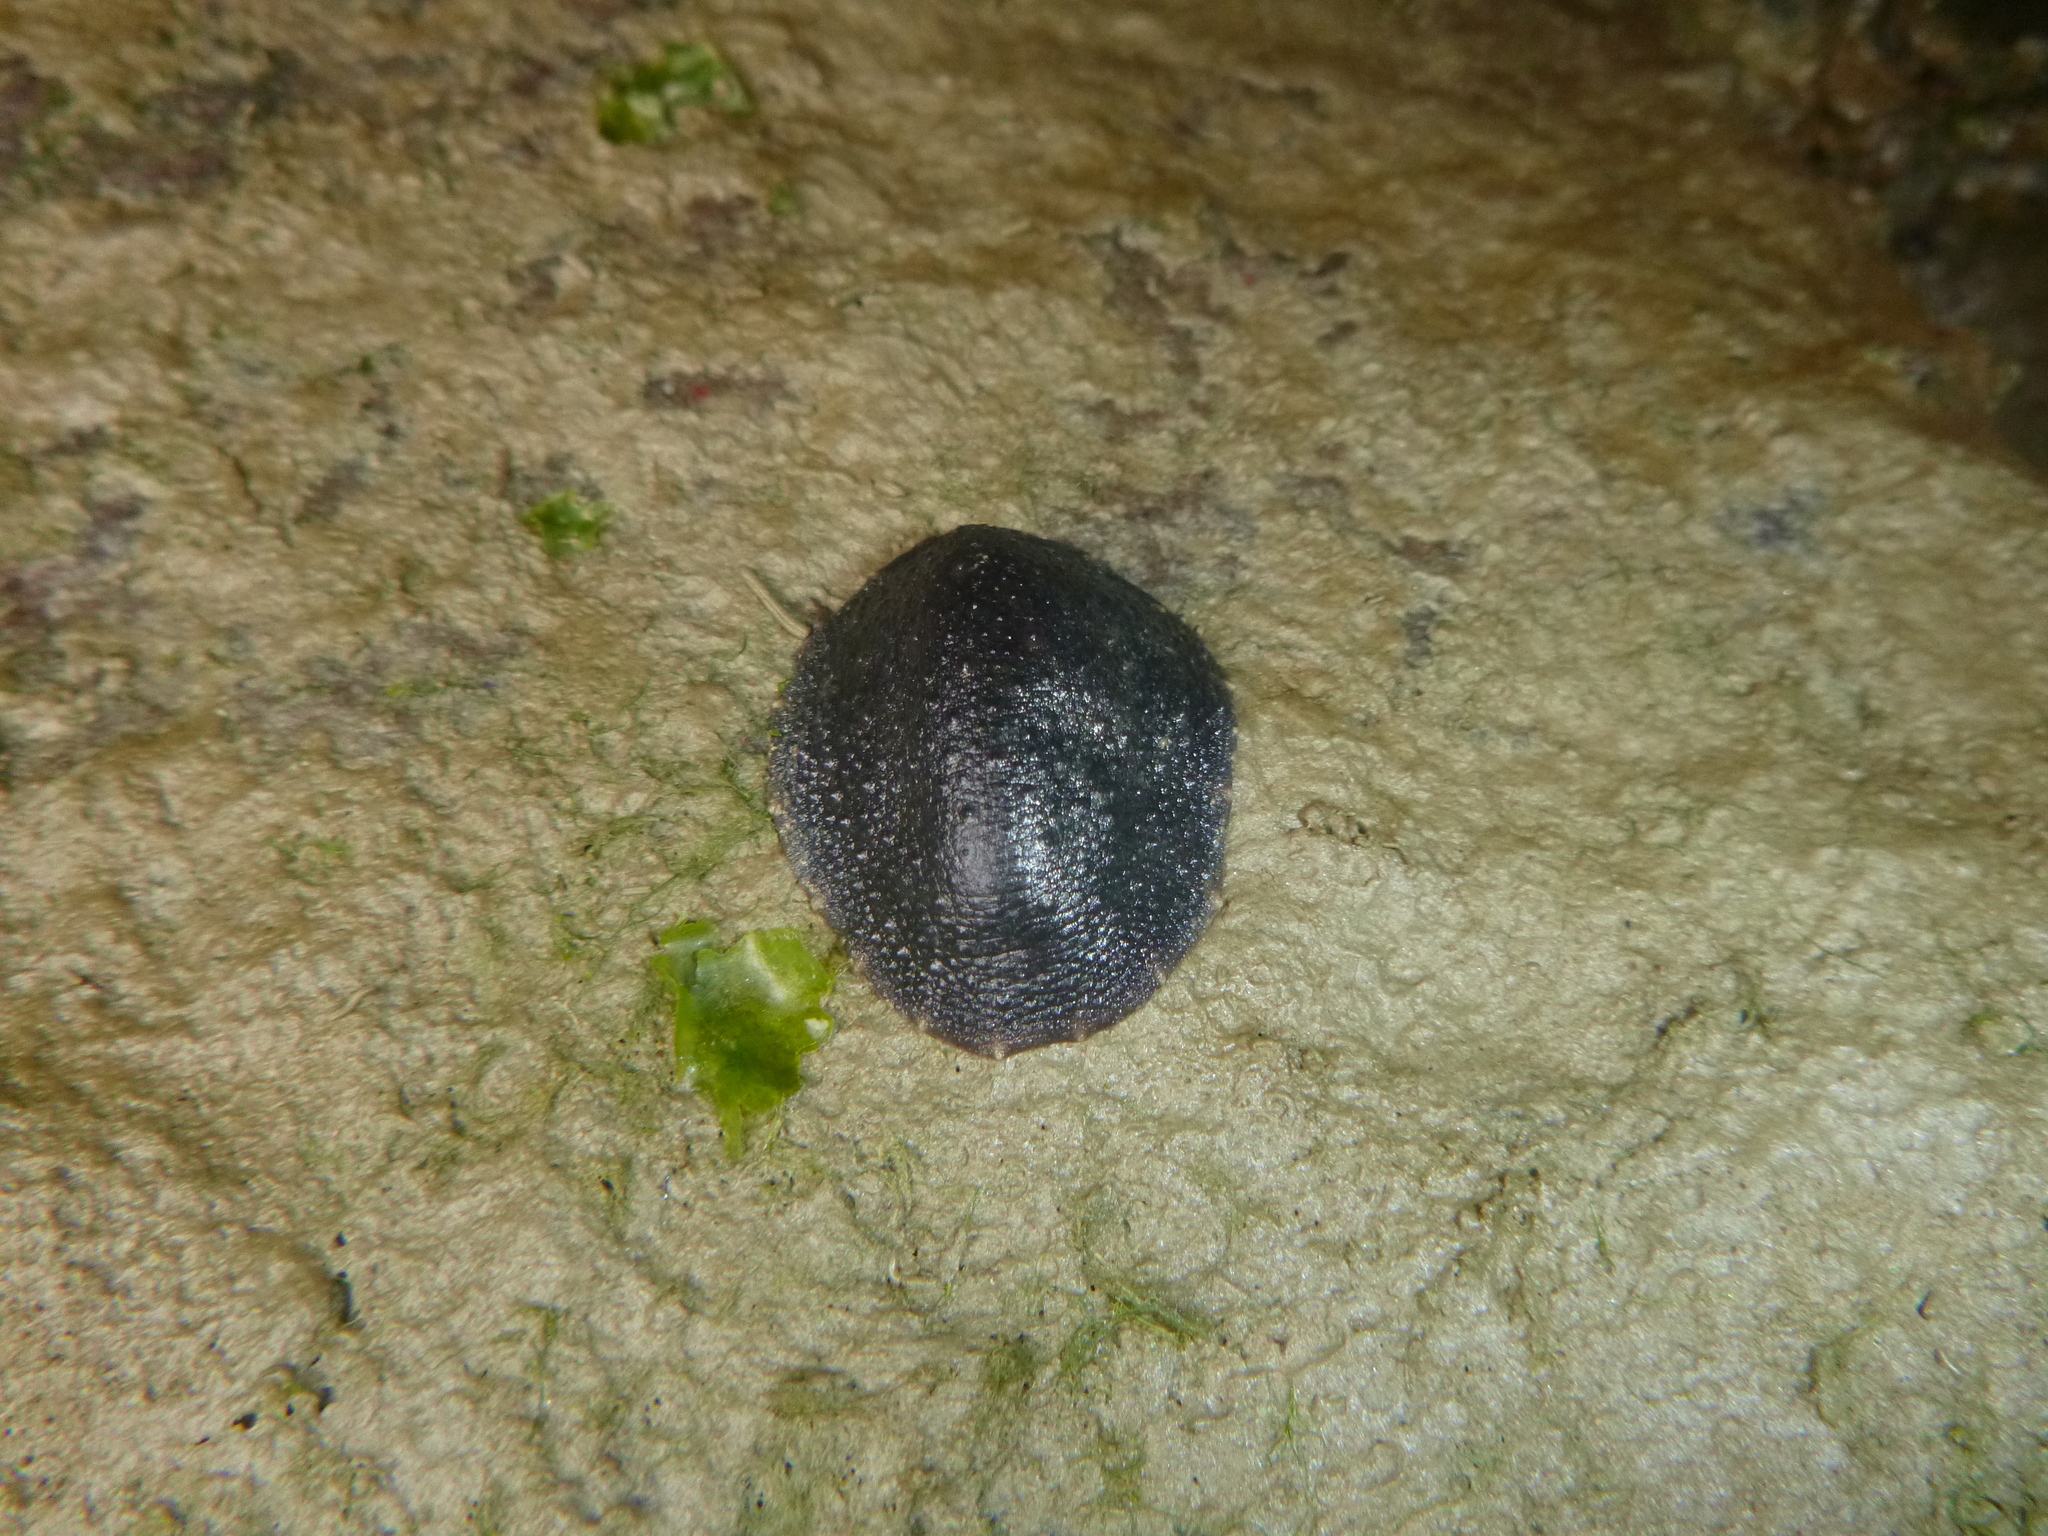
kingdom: Animalia
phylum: Mollusca
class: Gastropoda
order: Systellommatophora
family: Onchidiidae
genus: Onchidella
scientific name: Onchidella nigricans
